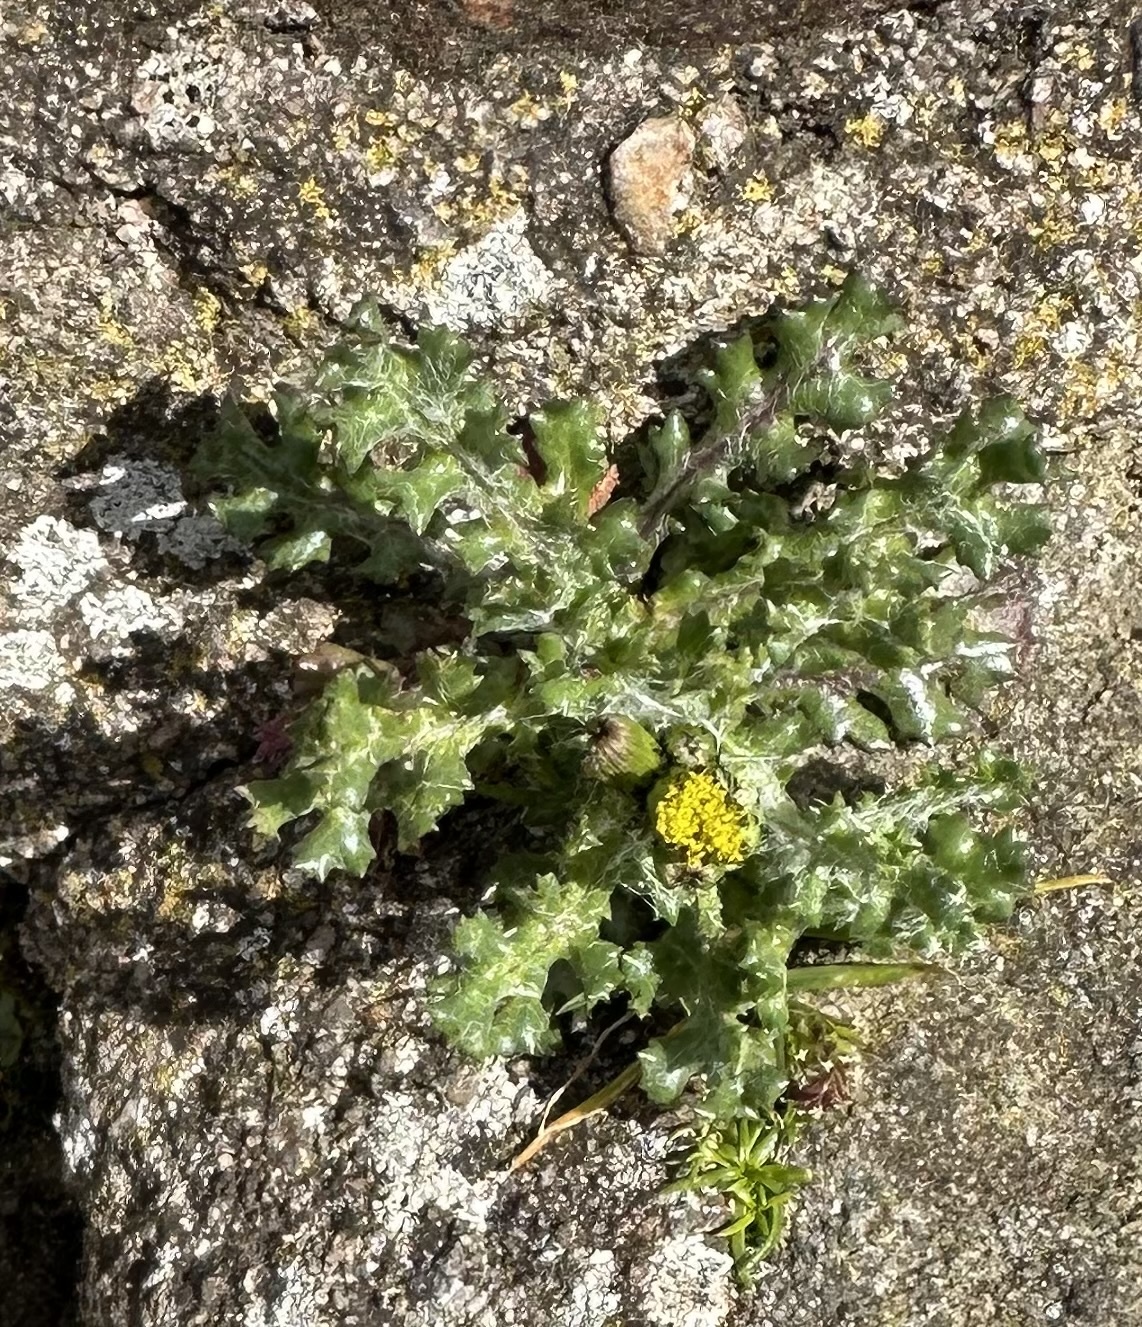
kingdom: Plantae
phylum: Tracheophyta
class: Magnoliopsida
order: Asterales
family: Asteraceae
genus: Senecio
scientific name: Senecio vulgaris
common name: Old-man-in-the-spring
